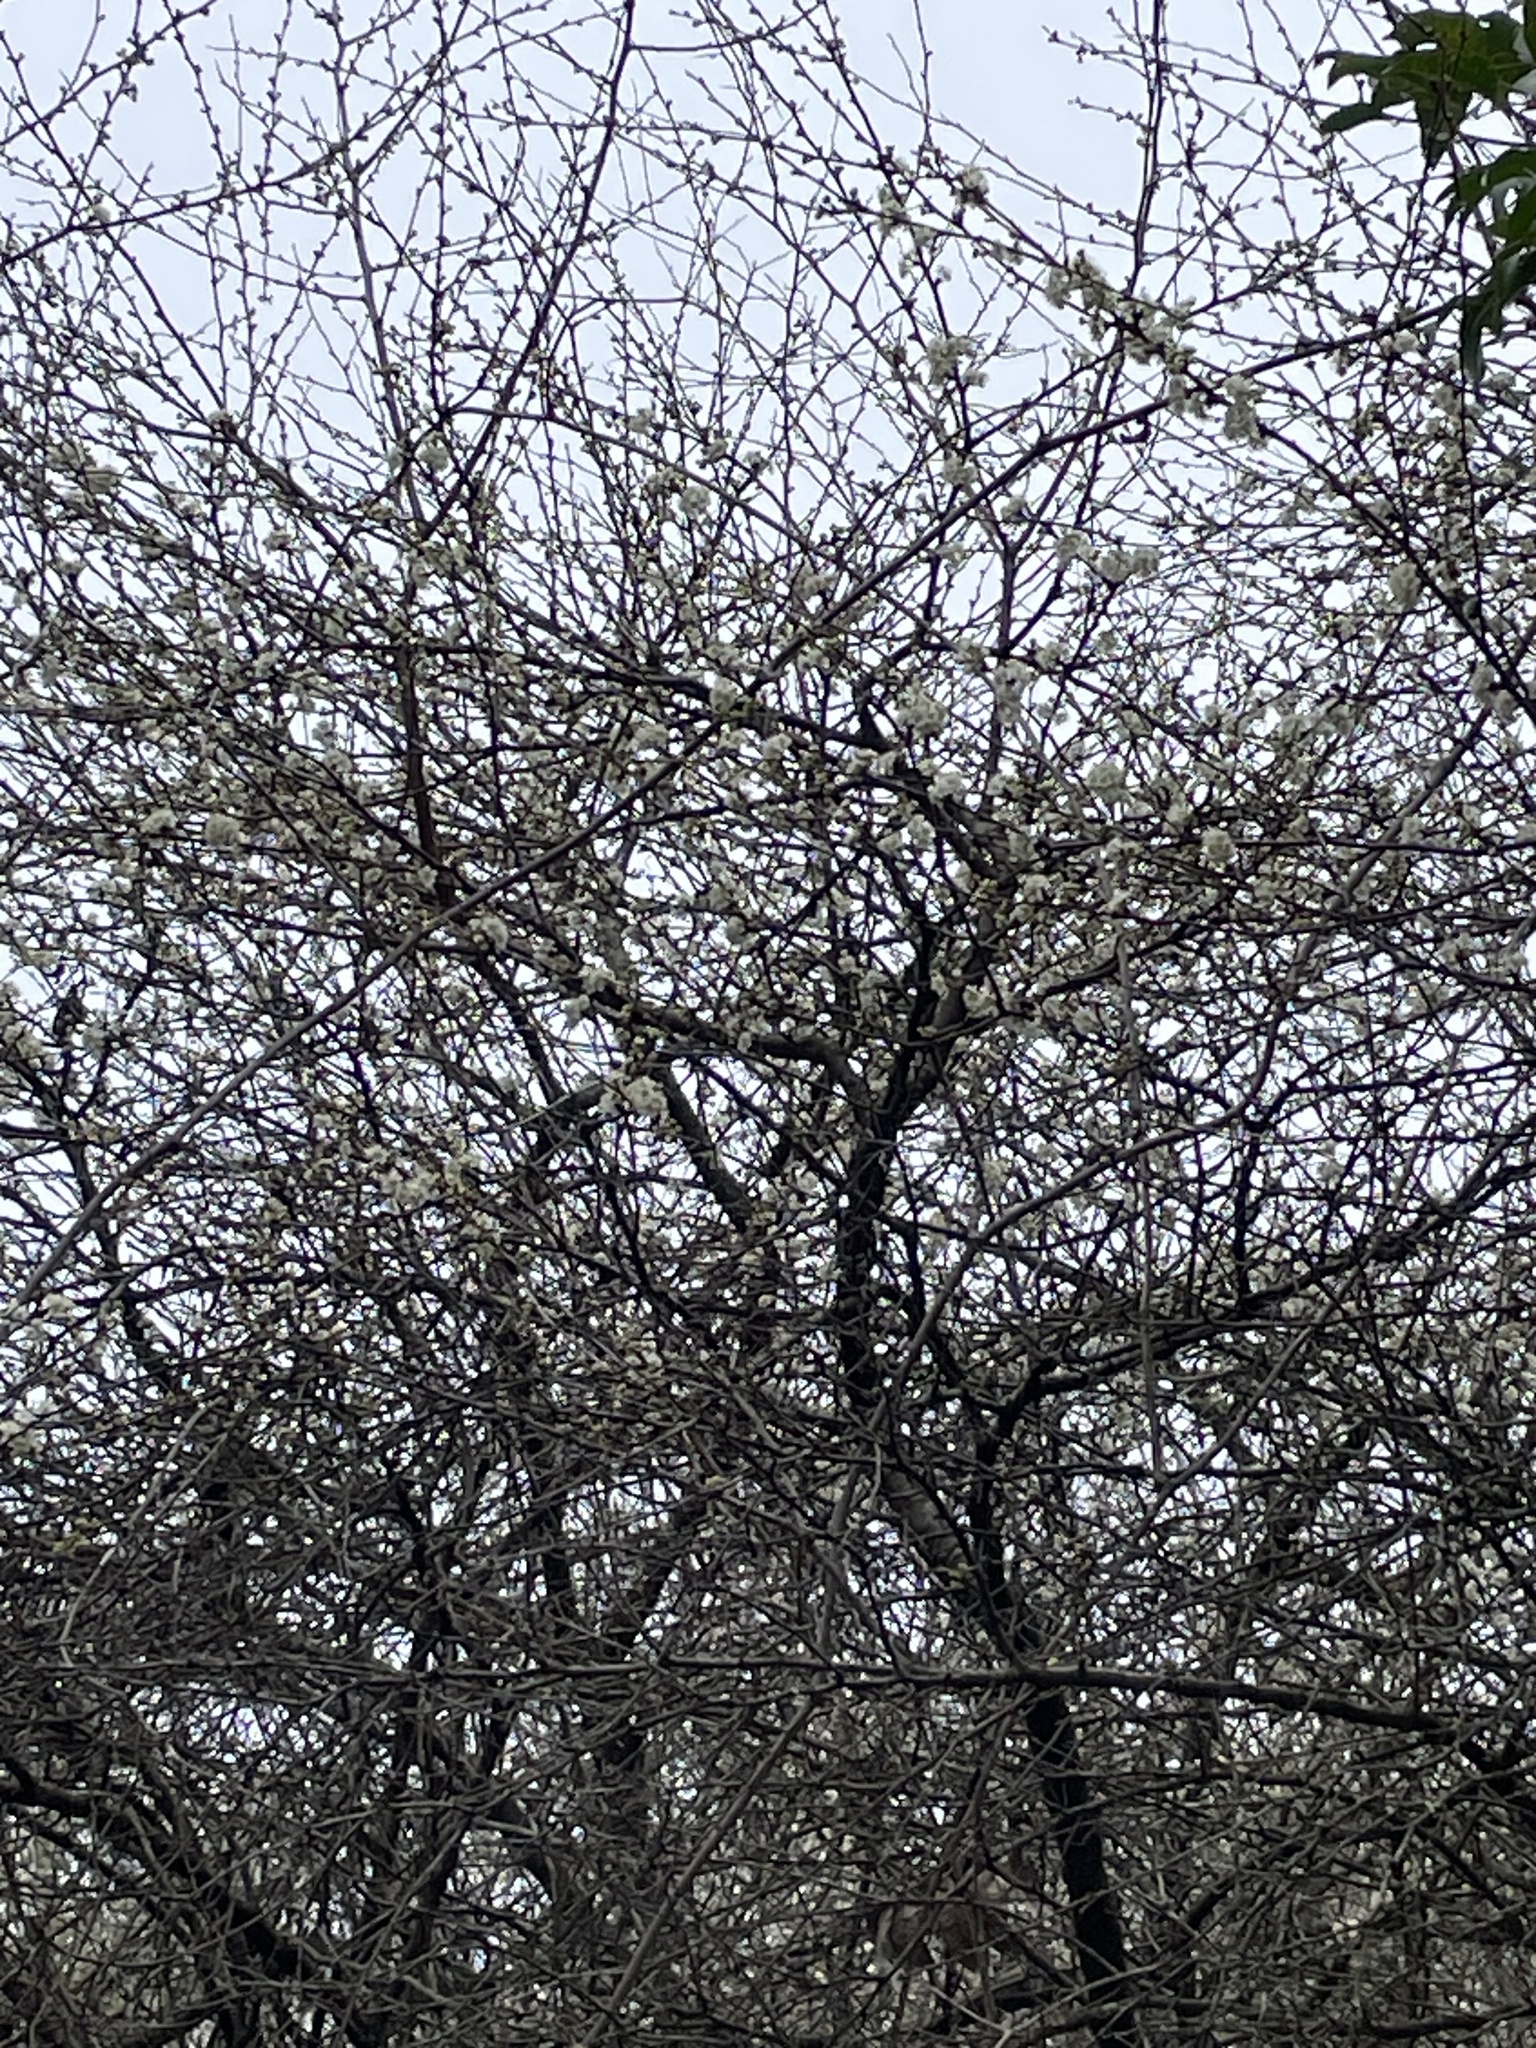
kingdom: Plantae
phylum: Tracheophyta
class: Magnoliopsida
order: Rosales
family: Rosaceae
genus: Prunus
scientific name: Prunus angustifolia
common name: Cherokee plum
